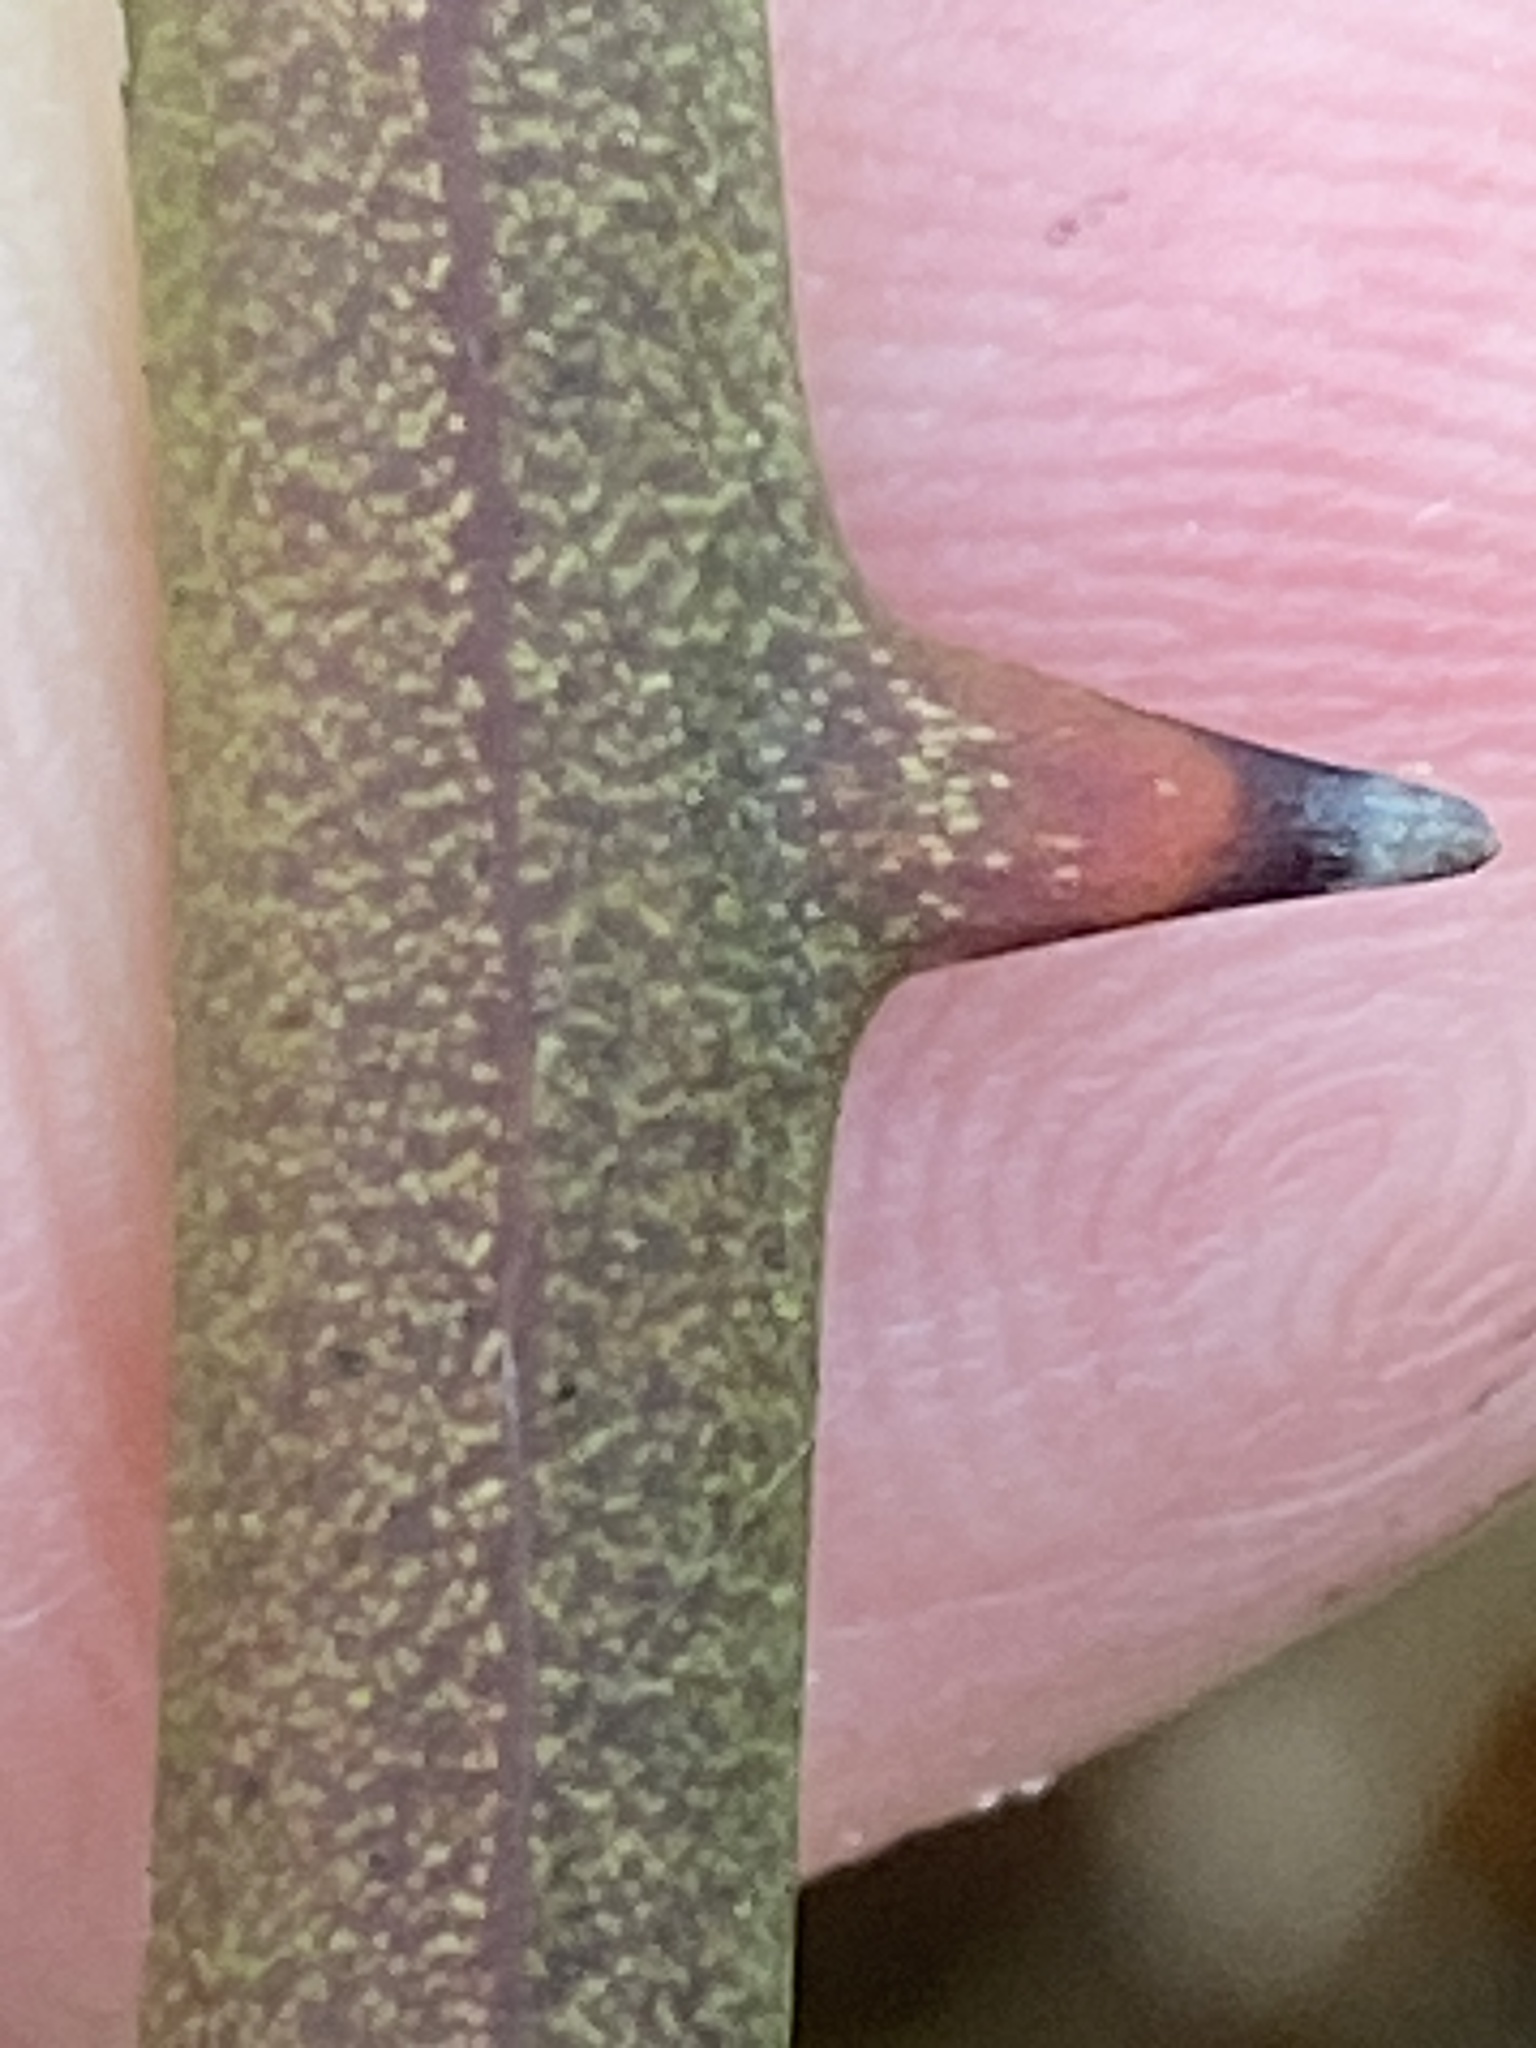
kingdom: Plantae
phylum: Tracheophyta
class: Liliopsida
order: Liliales
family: Smilacaceae
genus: Smilax
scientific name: Smilax bona-nox
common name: Catbrier
